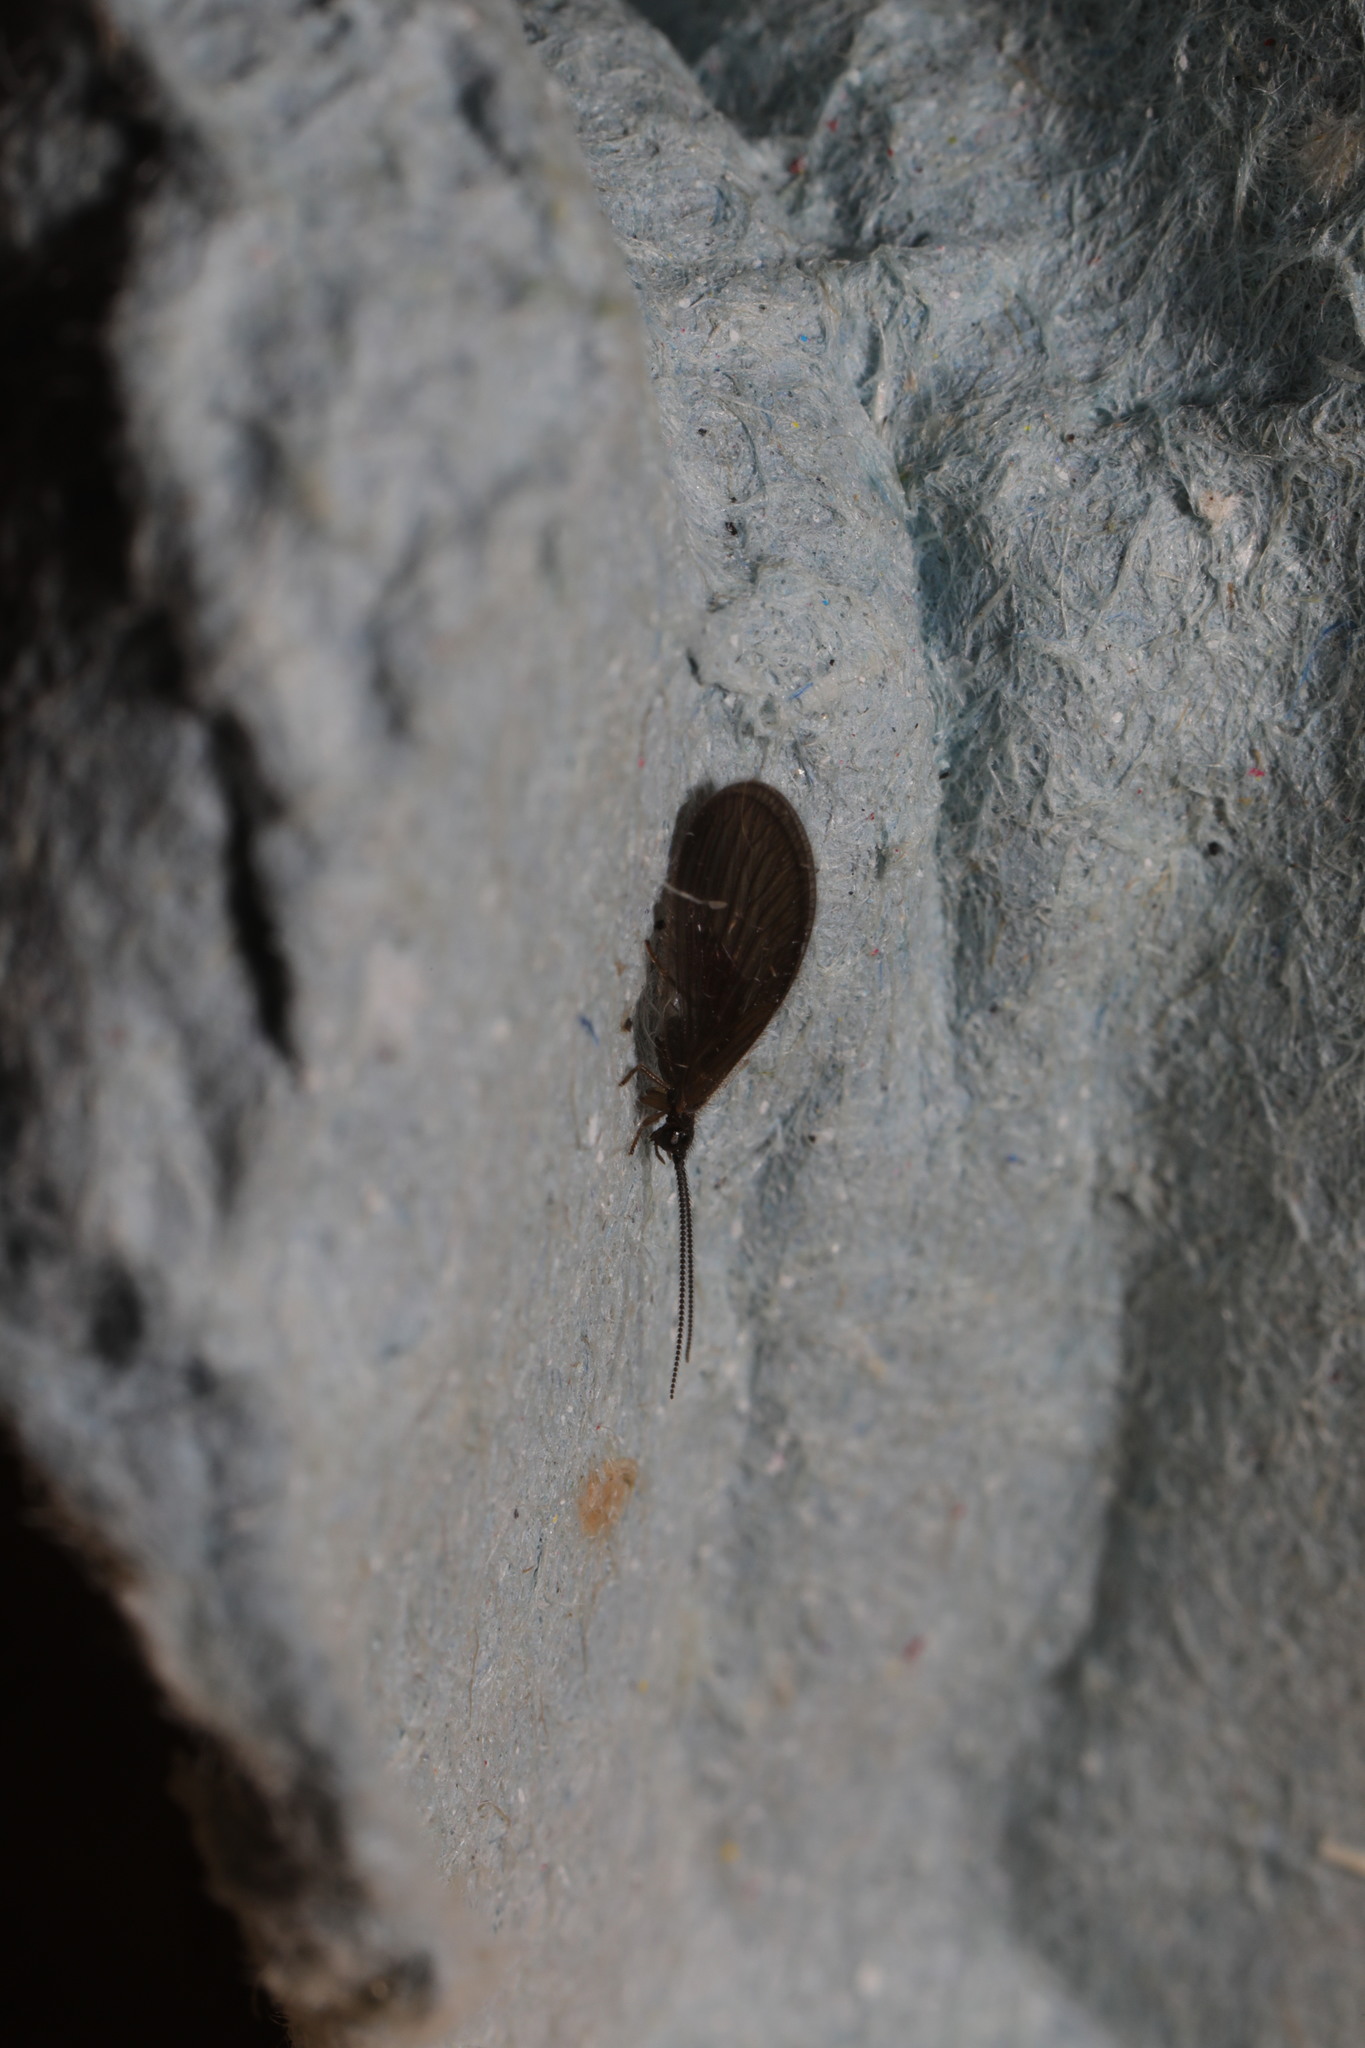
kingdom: Animalia
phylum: Arthropoda
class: Insecta
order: Neuroptera
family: Sisyridae
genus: Sisyra
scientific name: Sisyra nigra
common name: Black spongillafly
